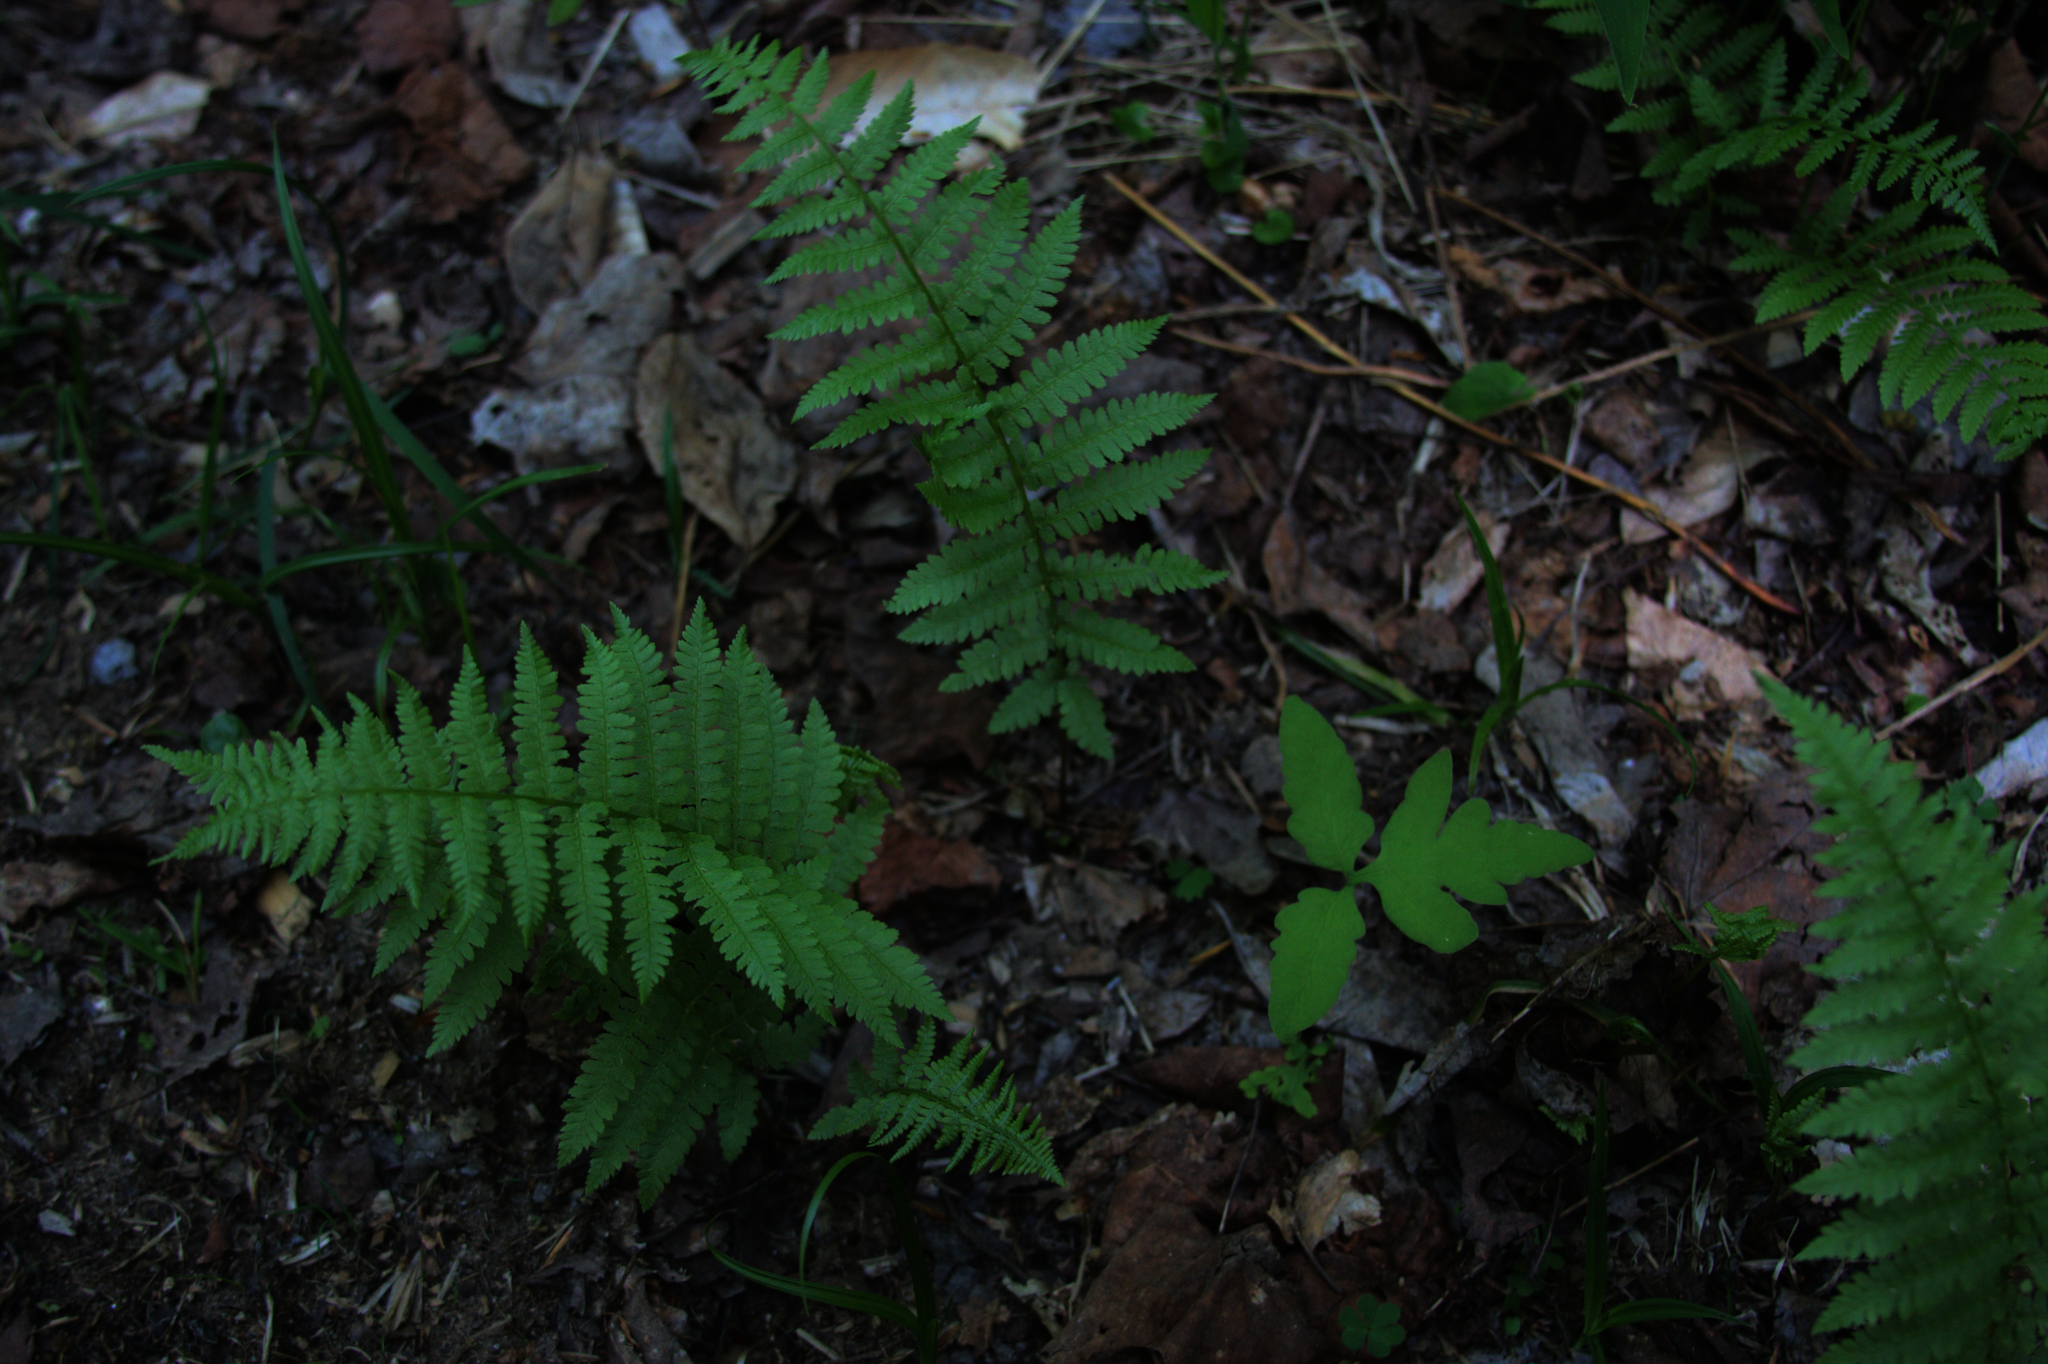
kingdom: Plantae
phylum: Tracheophyta
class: Polypodiopsida
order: Polypodiales
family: Onocleaceae
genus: Onoclea
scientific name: Onoclea sensibilis
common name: Sensitive fern
